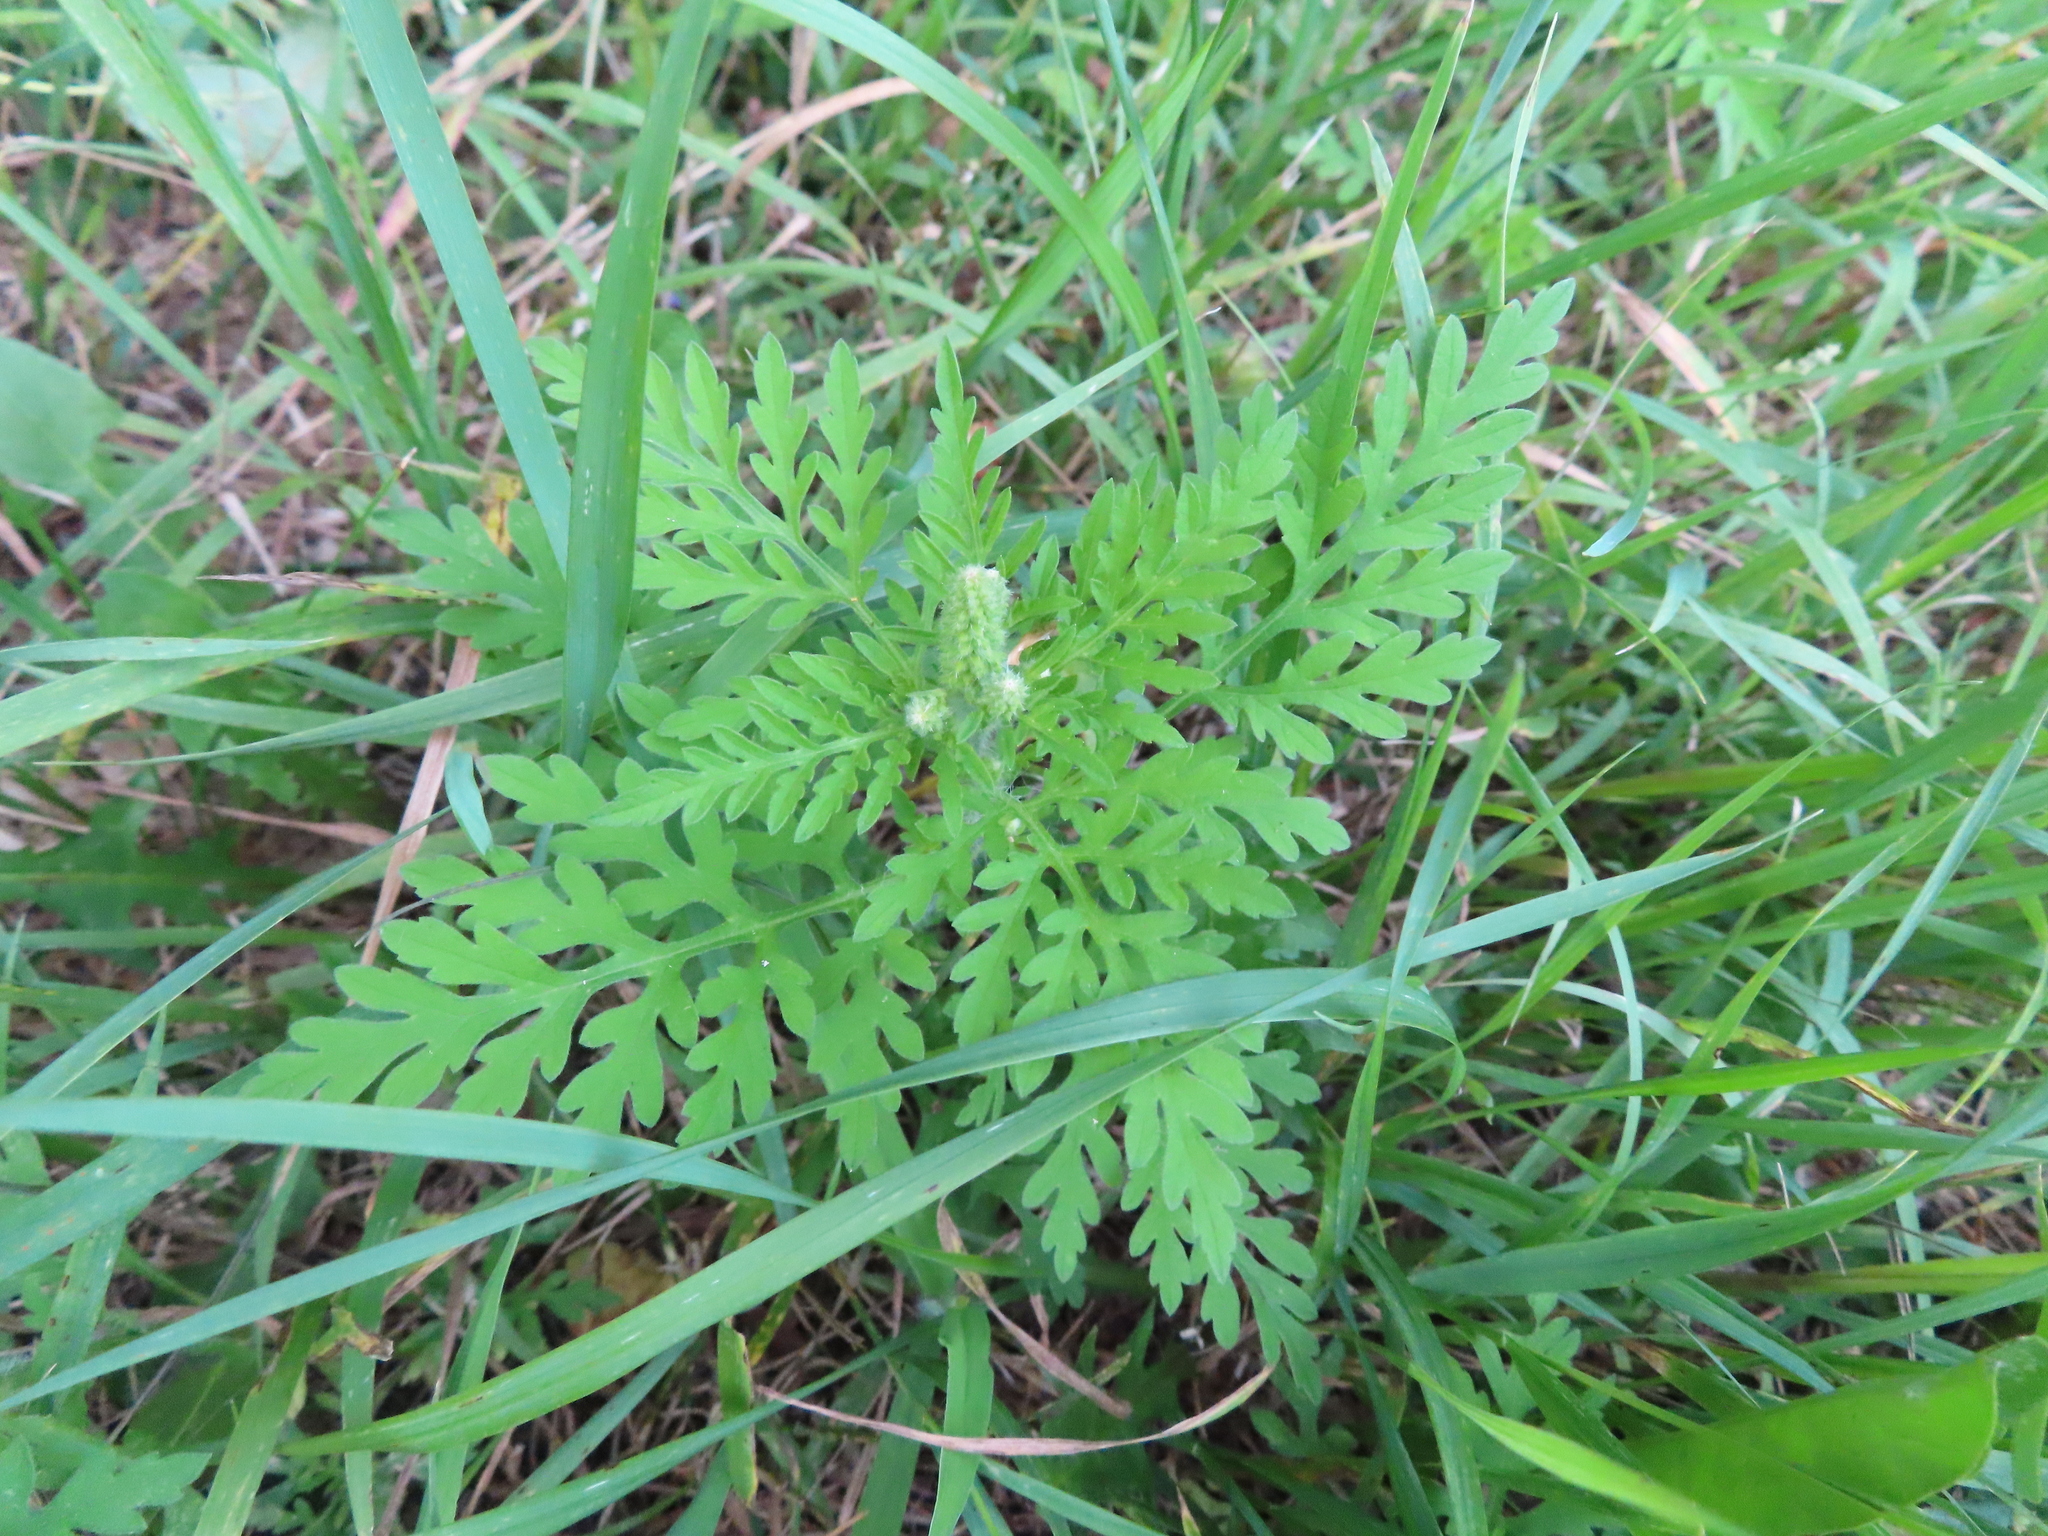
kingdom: Plantae
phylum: Tracheophyta
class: Magnoliopsida
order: Asterales
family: Asteraceae
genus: Ambrosia
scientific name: Ambrosia artemisiifolia
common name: Annual ragweed
